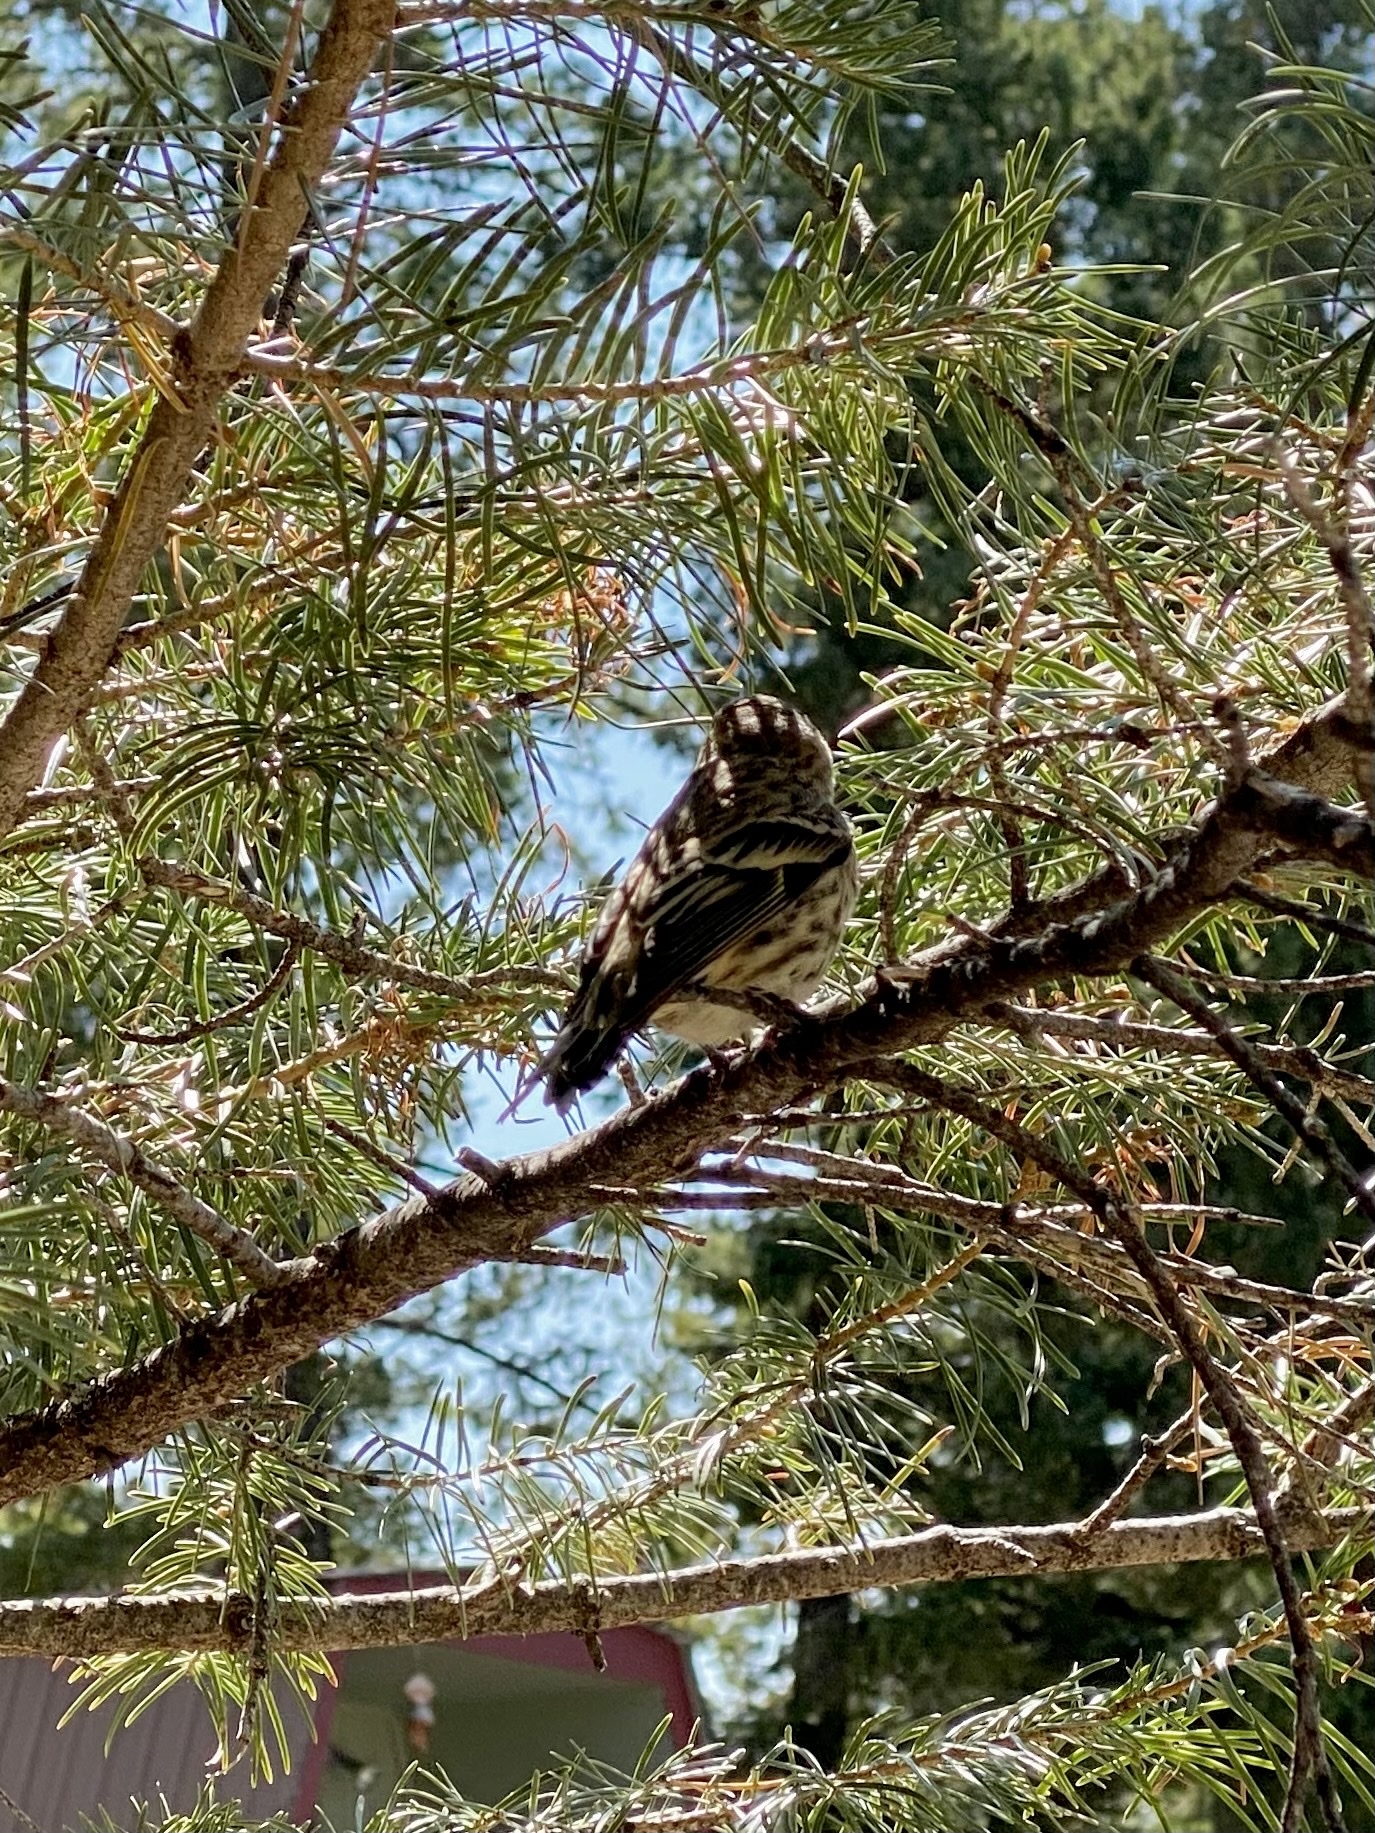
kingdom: Animalia
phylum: Chordata
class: Aves
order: Passeriformes
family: Fringillidae
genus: Spinus
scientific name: Spinus pinus
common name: Pine siskin
